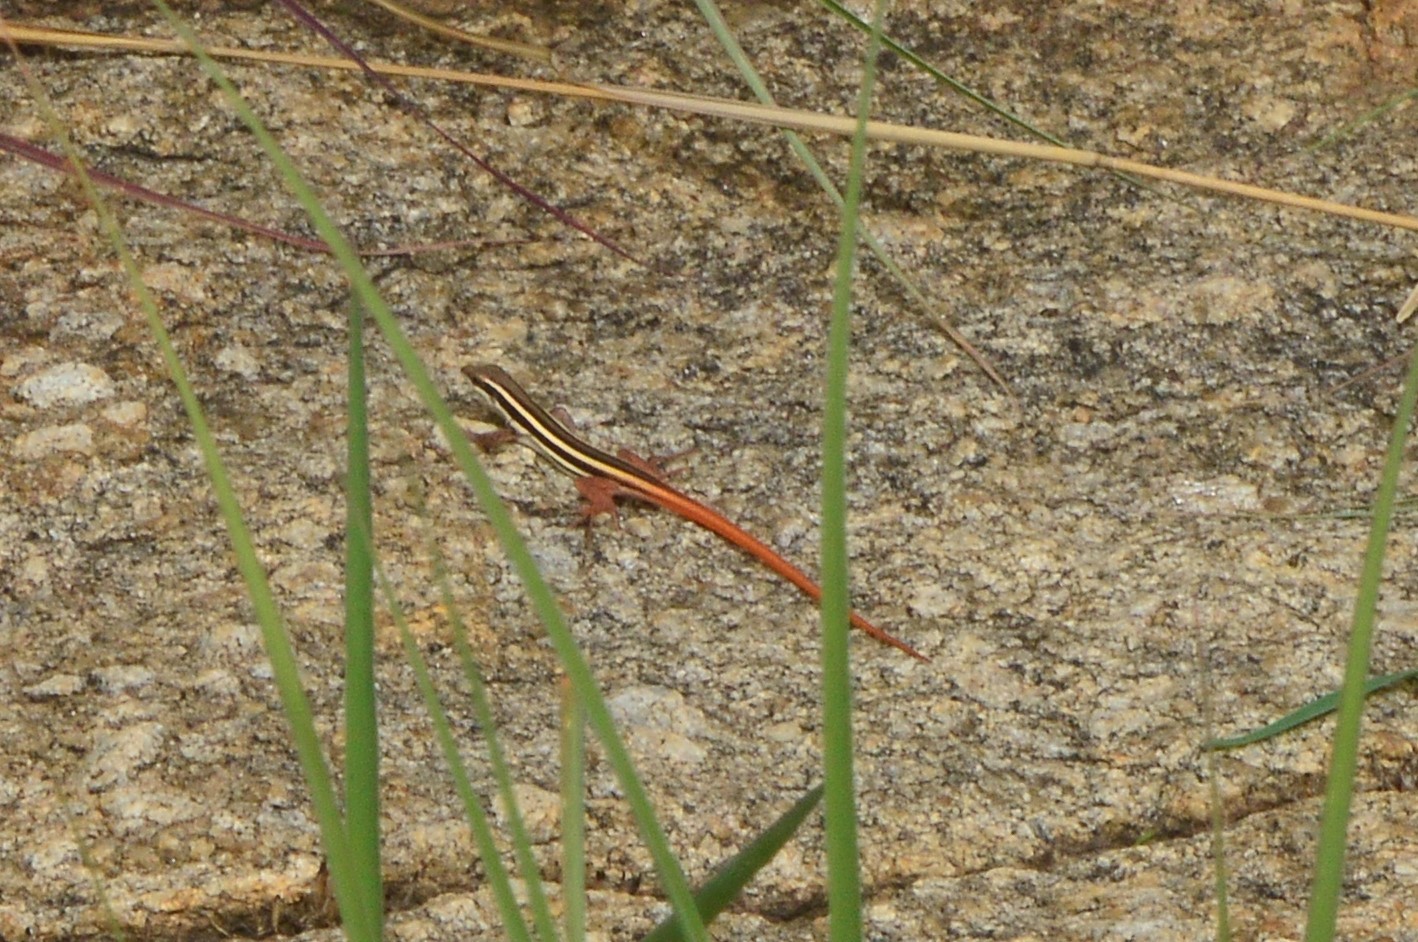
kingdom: Animalia
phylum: Chordata
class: Squamata
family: Lacertidae
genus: Ophisops
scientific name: Ophisops leschenaultii
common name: Leschenault's cabrita
